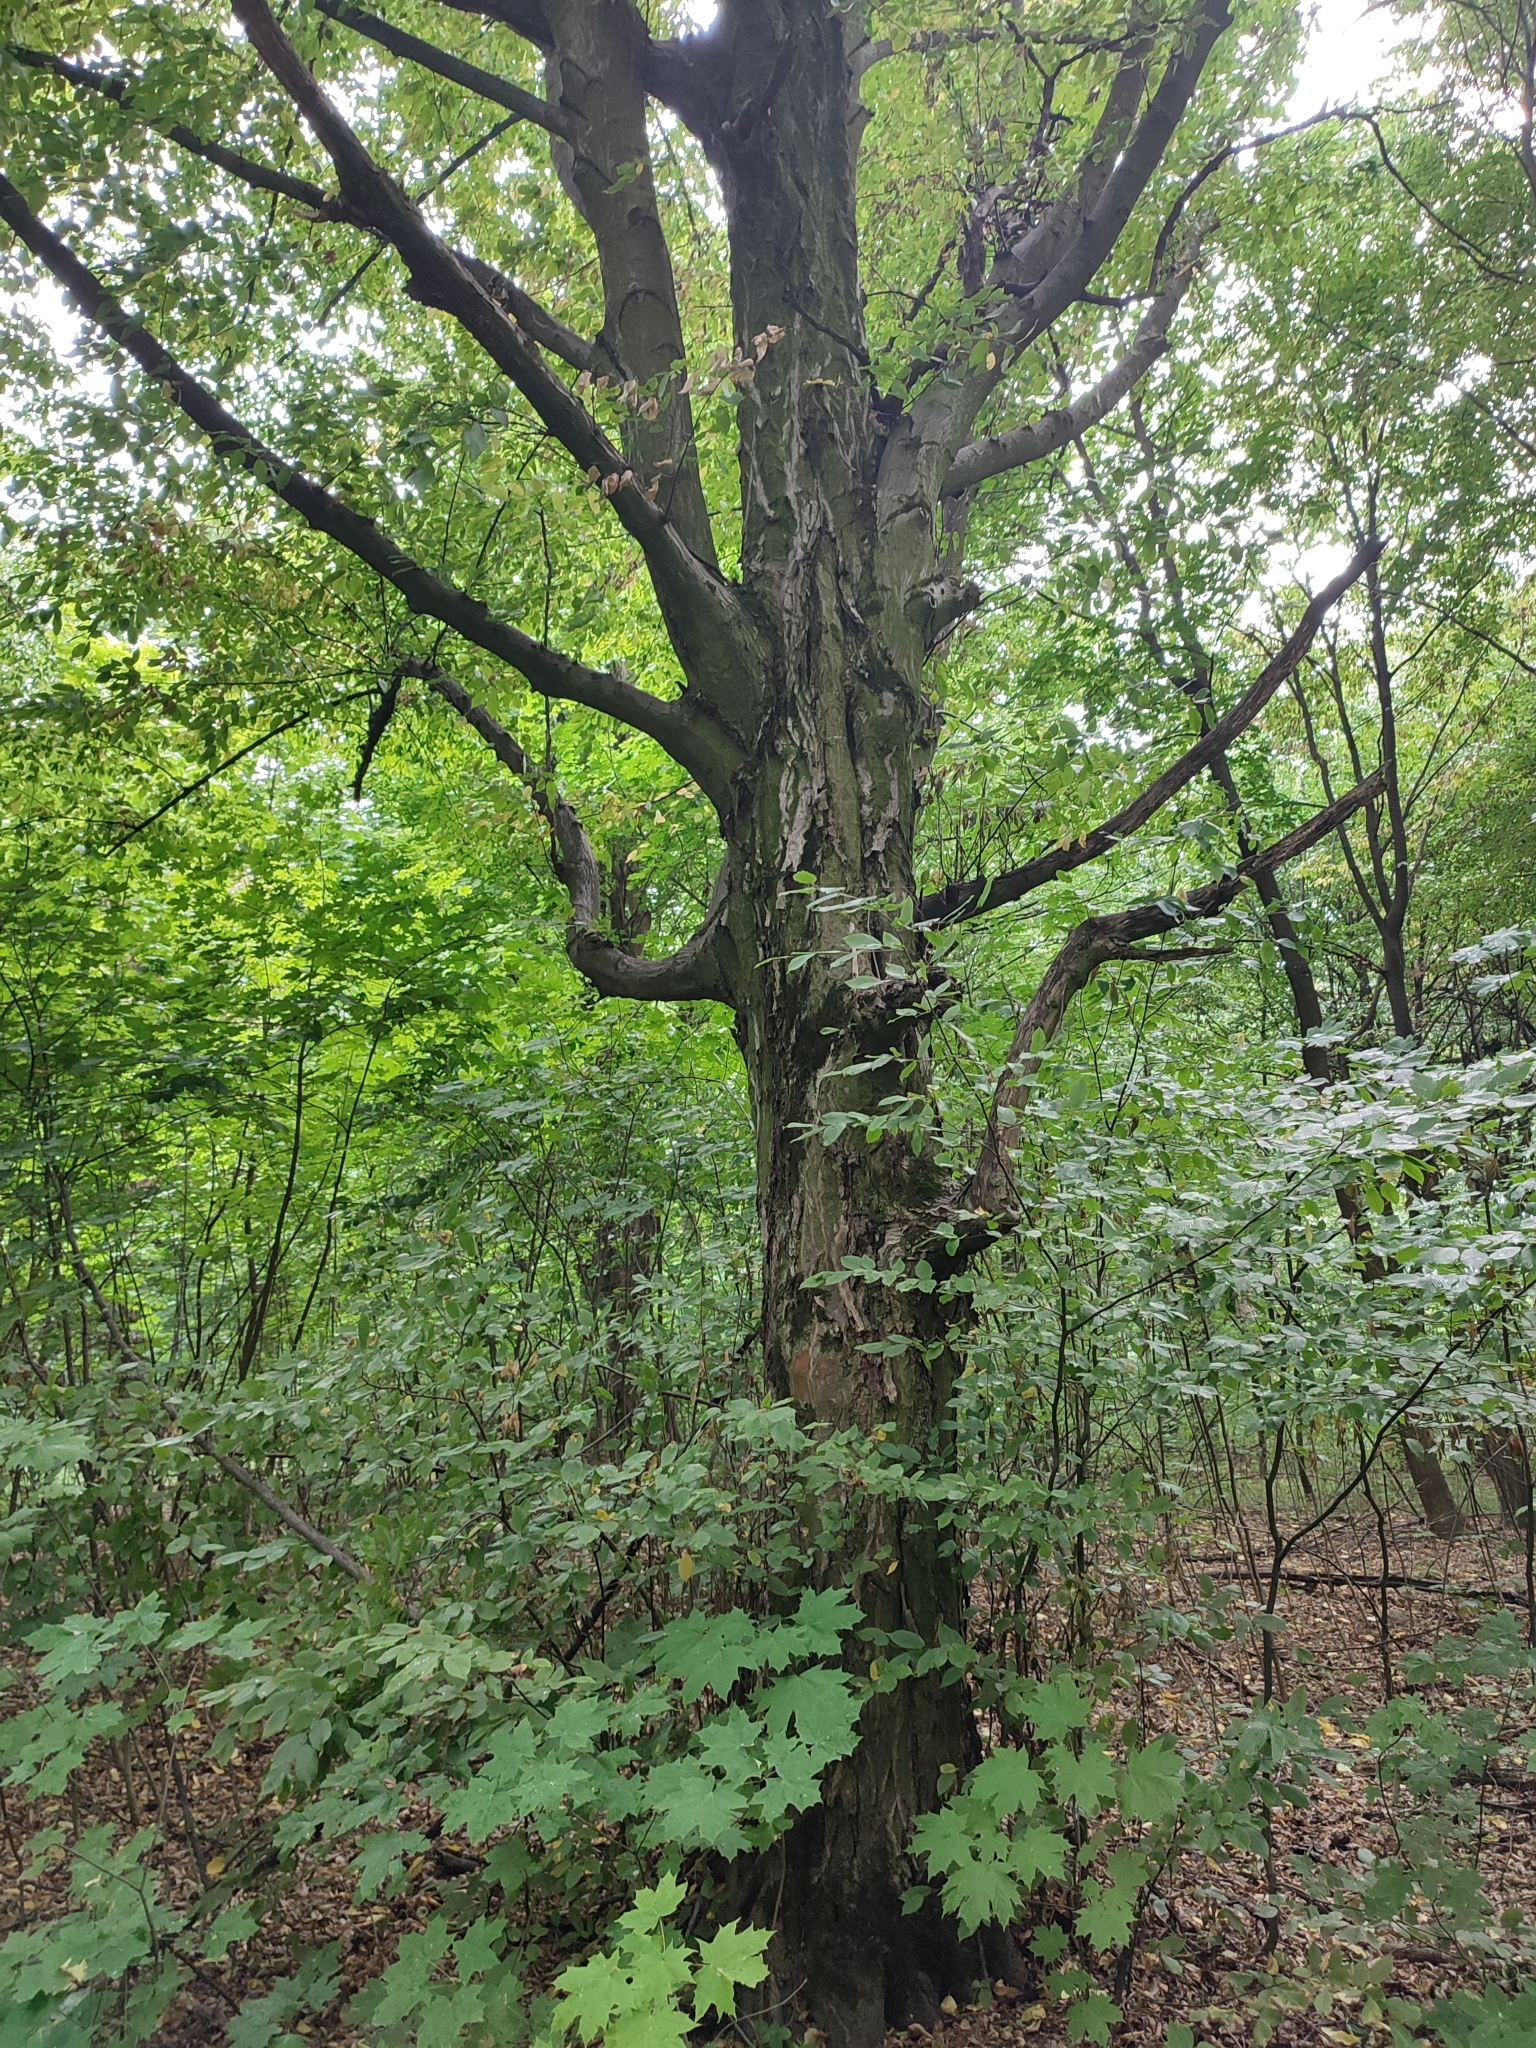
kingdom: Plantae
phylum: Tracheophyta
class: Magnoliopsida
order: Fagales
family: Betulaceae
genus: Carpinus
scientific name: Carpinus betulus
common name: Hornbeam
